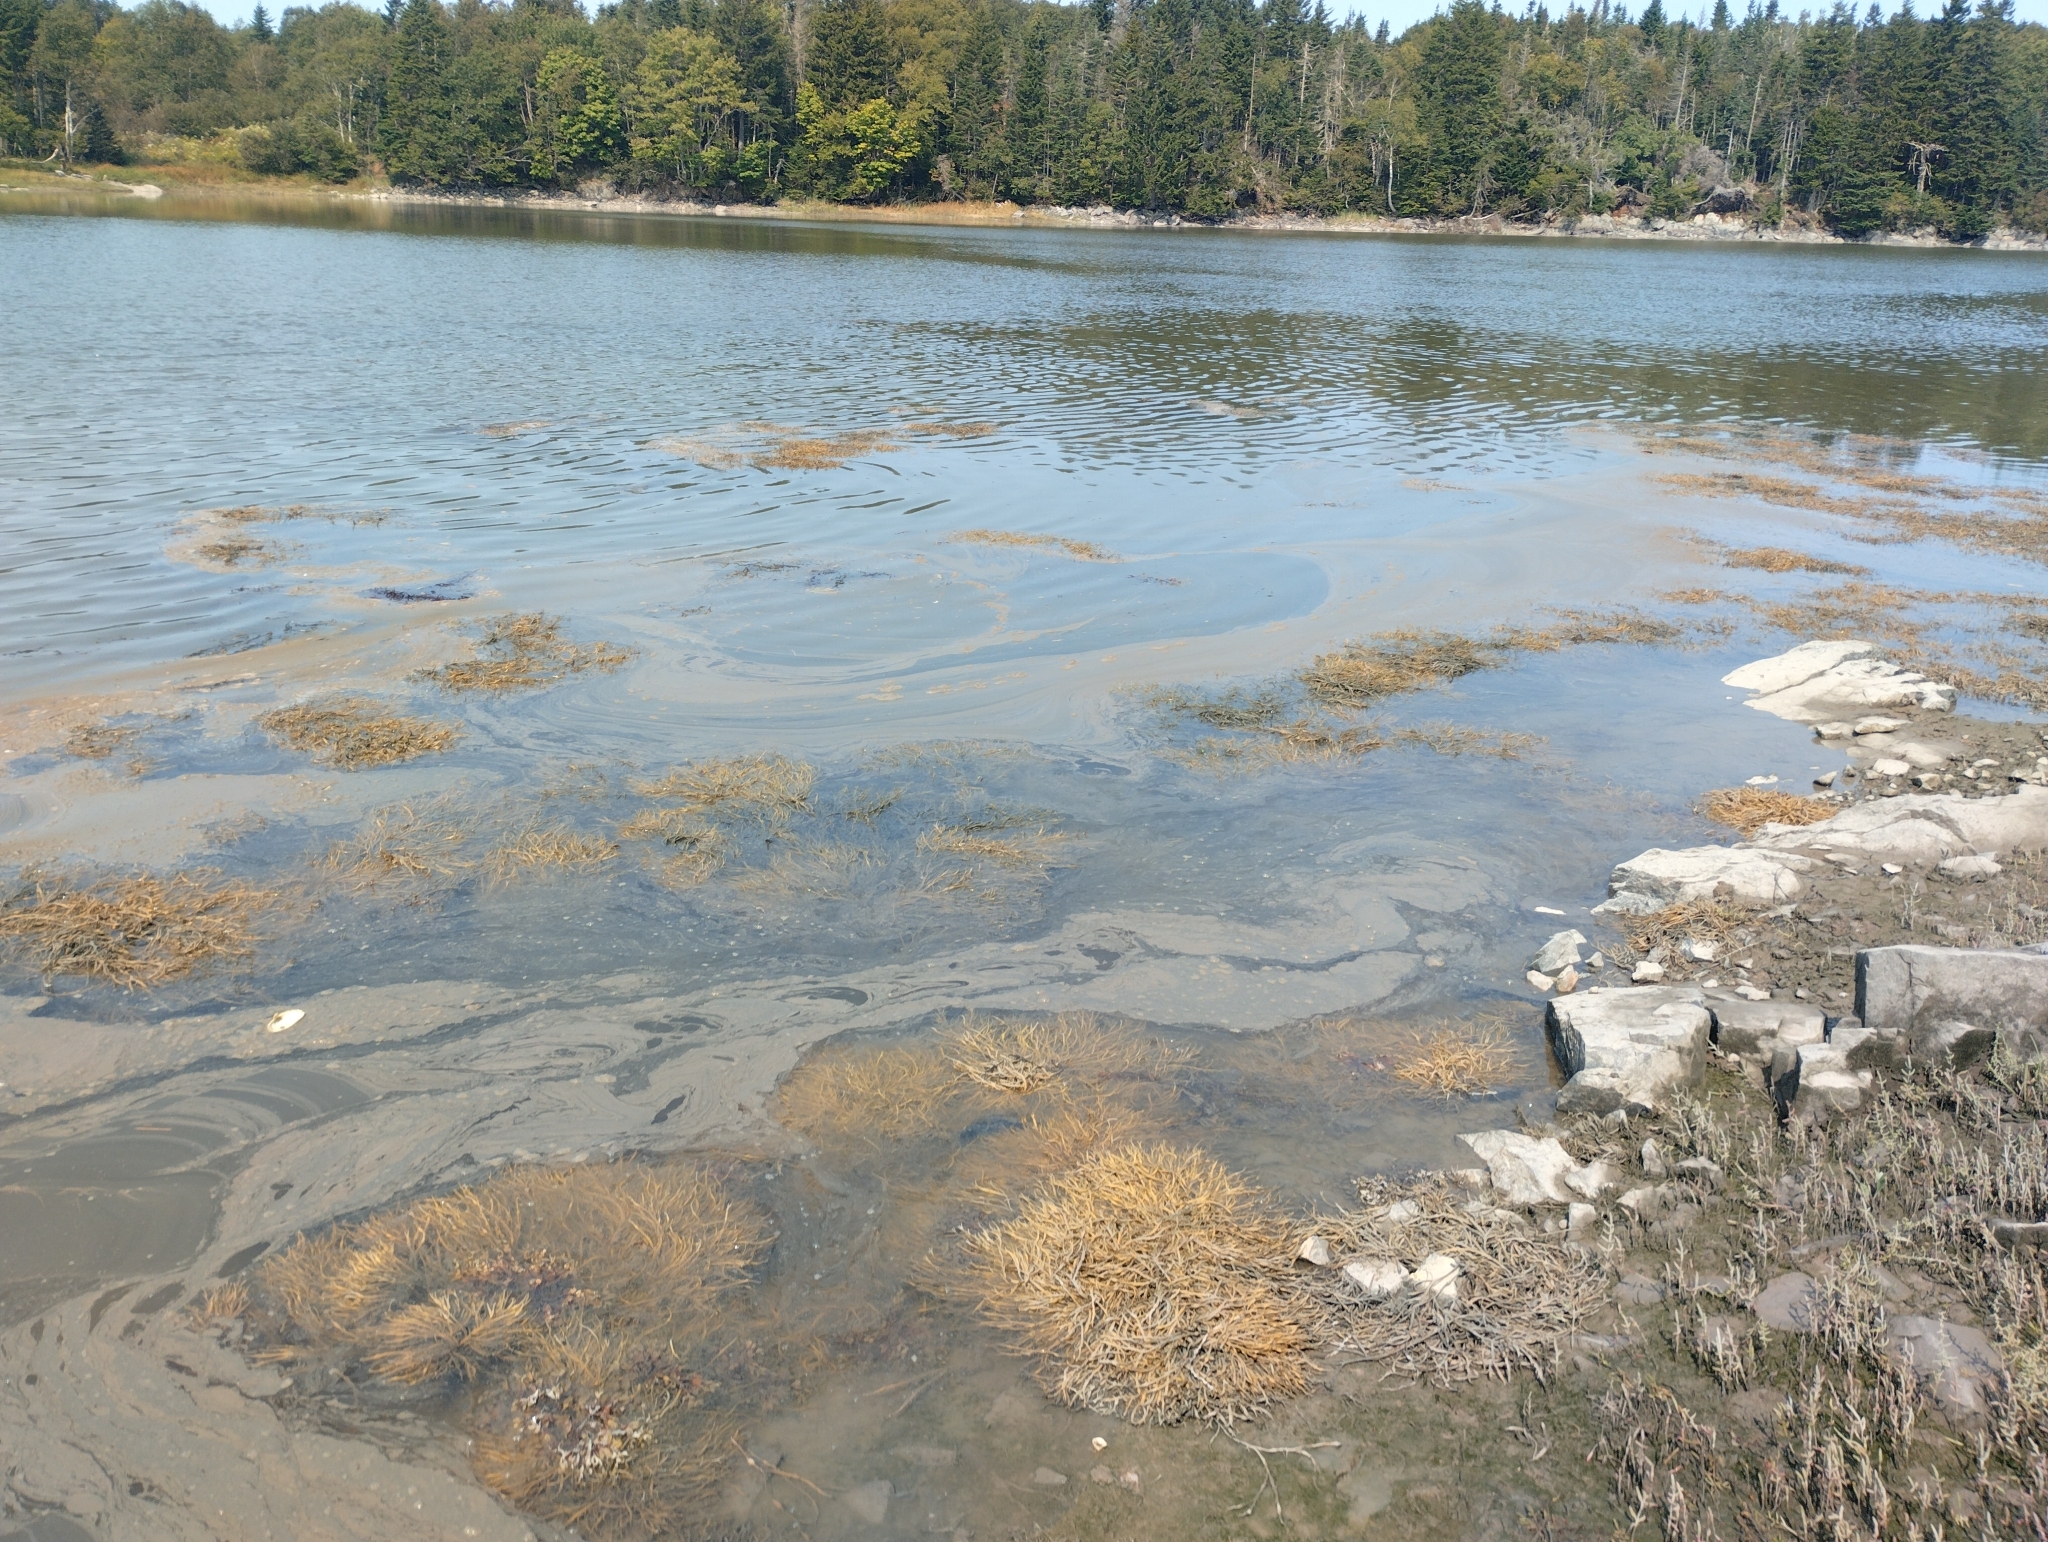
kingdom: Chromista
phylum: Ochrophyta
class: Phaeophyceae
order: Fucales
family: Fucaceae
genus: Ascophyllum
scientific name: Ascophyllum nodosum
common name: Knotted wrack
